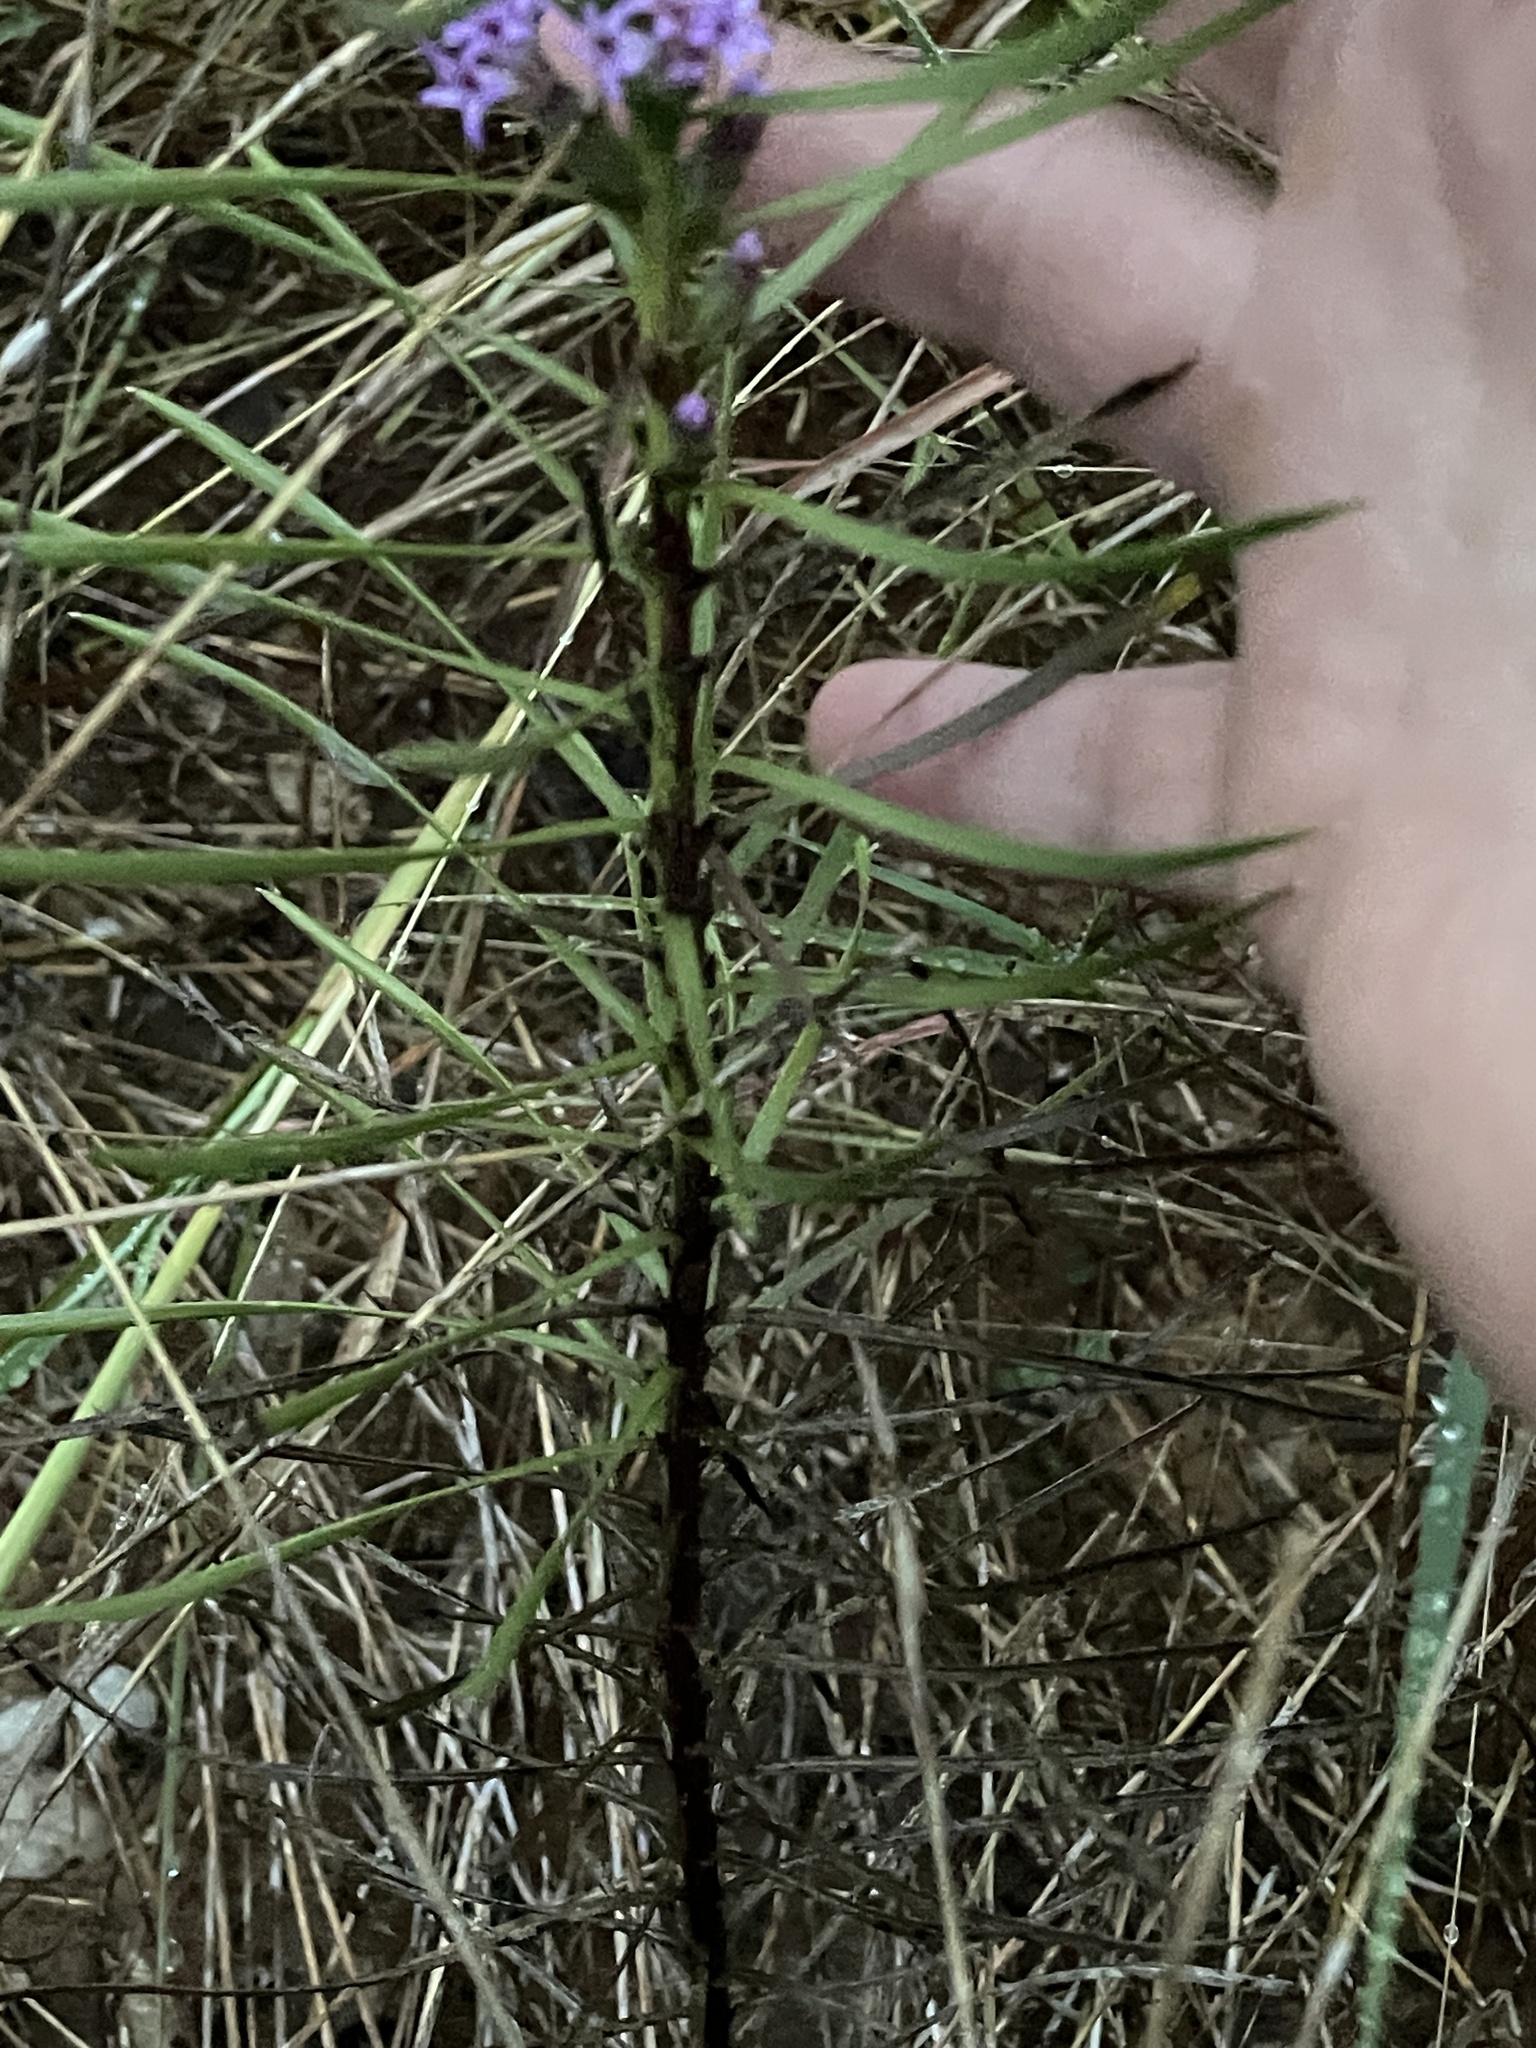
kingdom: Plantae
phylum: Tracheophyta
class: Magnoliopsida
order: Asterales
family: Asteraceae
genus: Liatris
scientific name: Liatris punctata
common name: Dotted gayfeather
